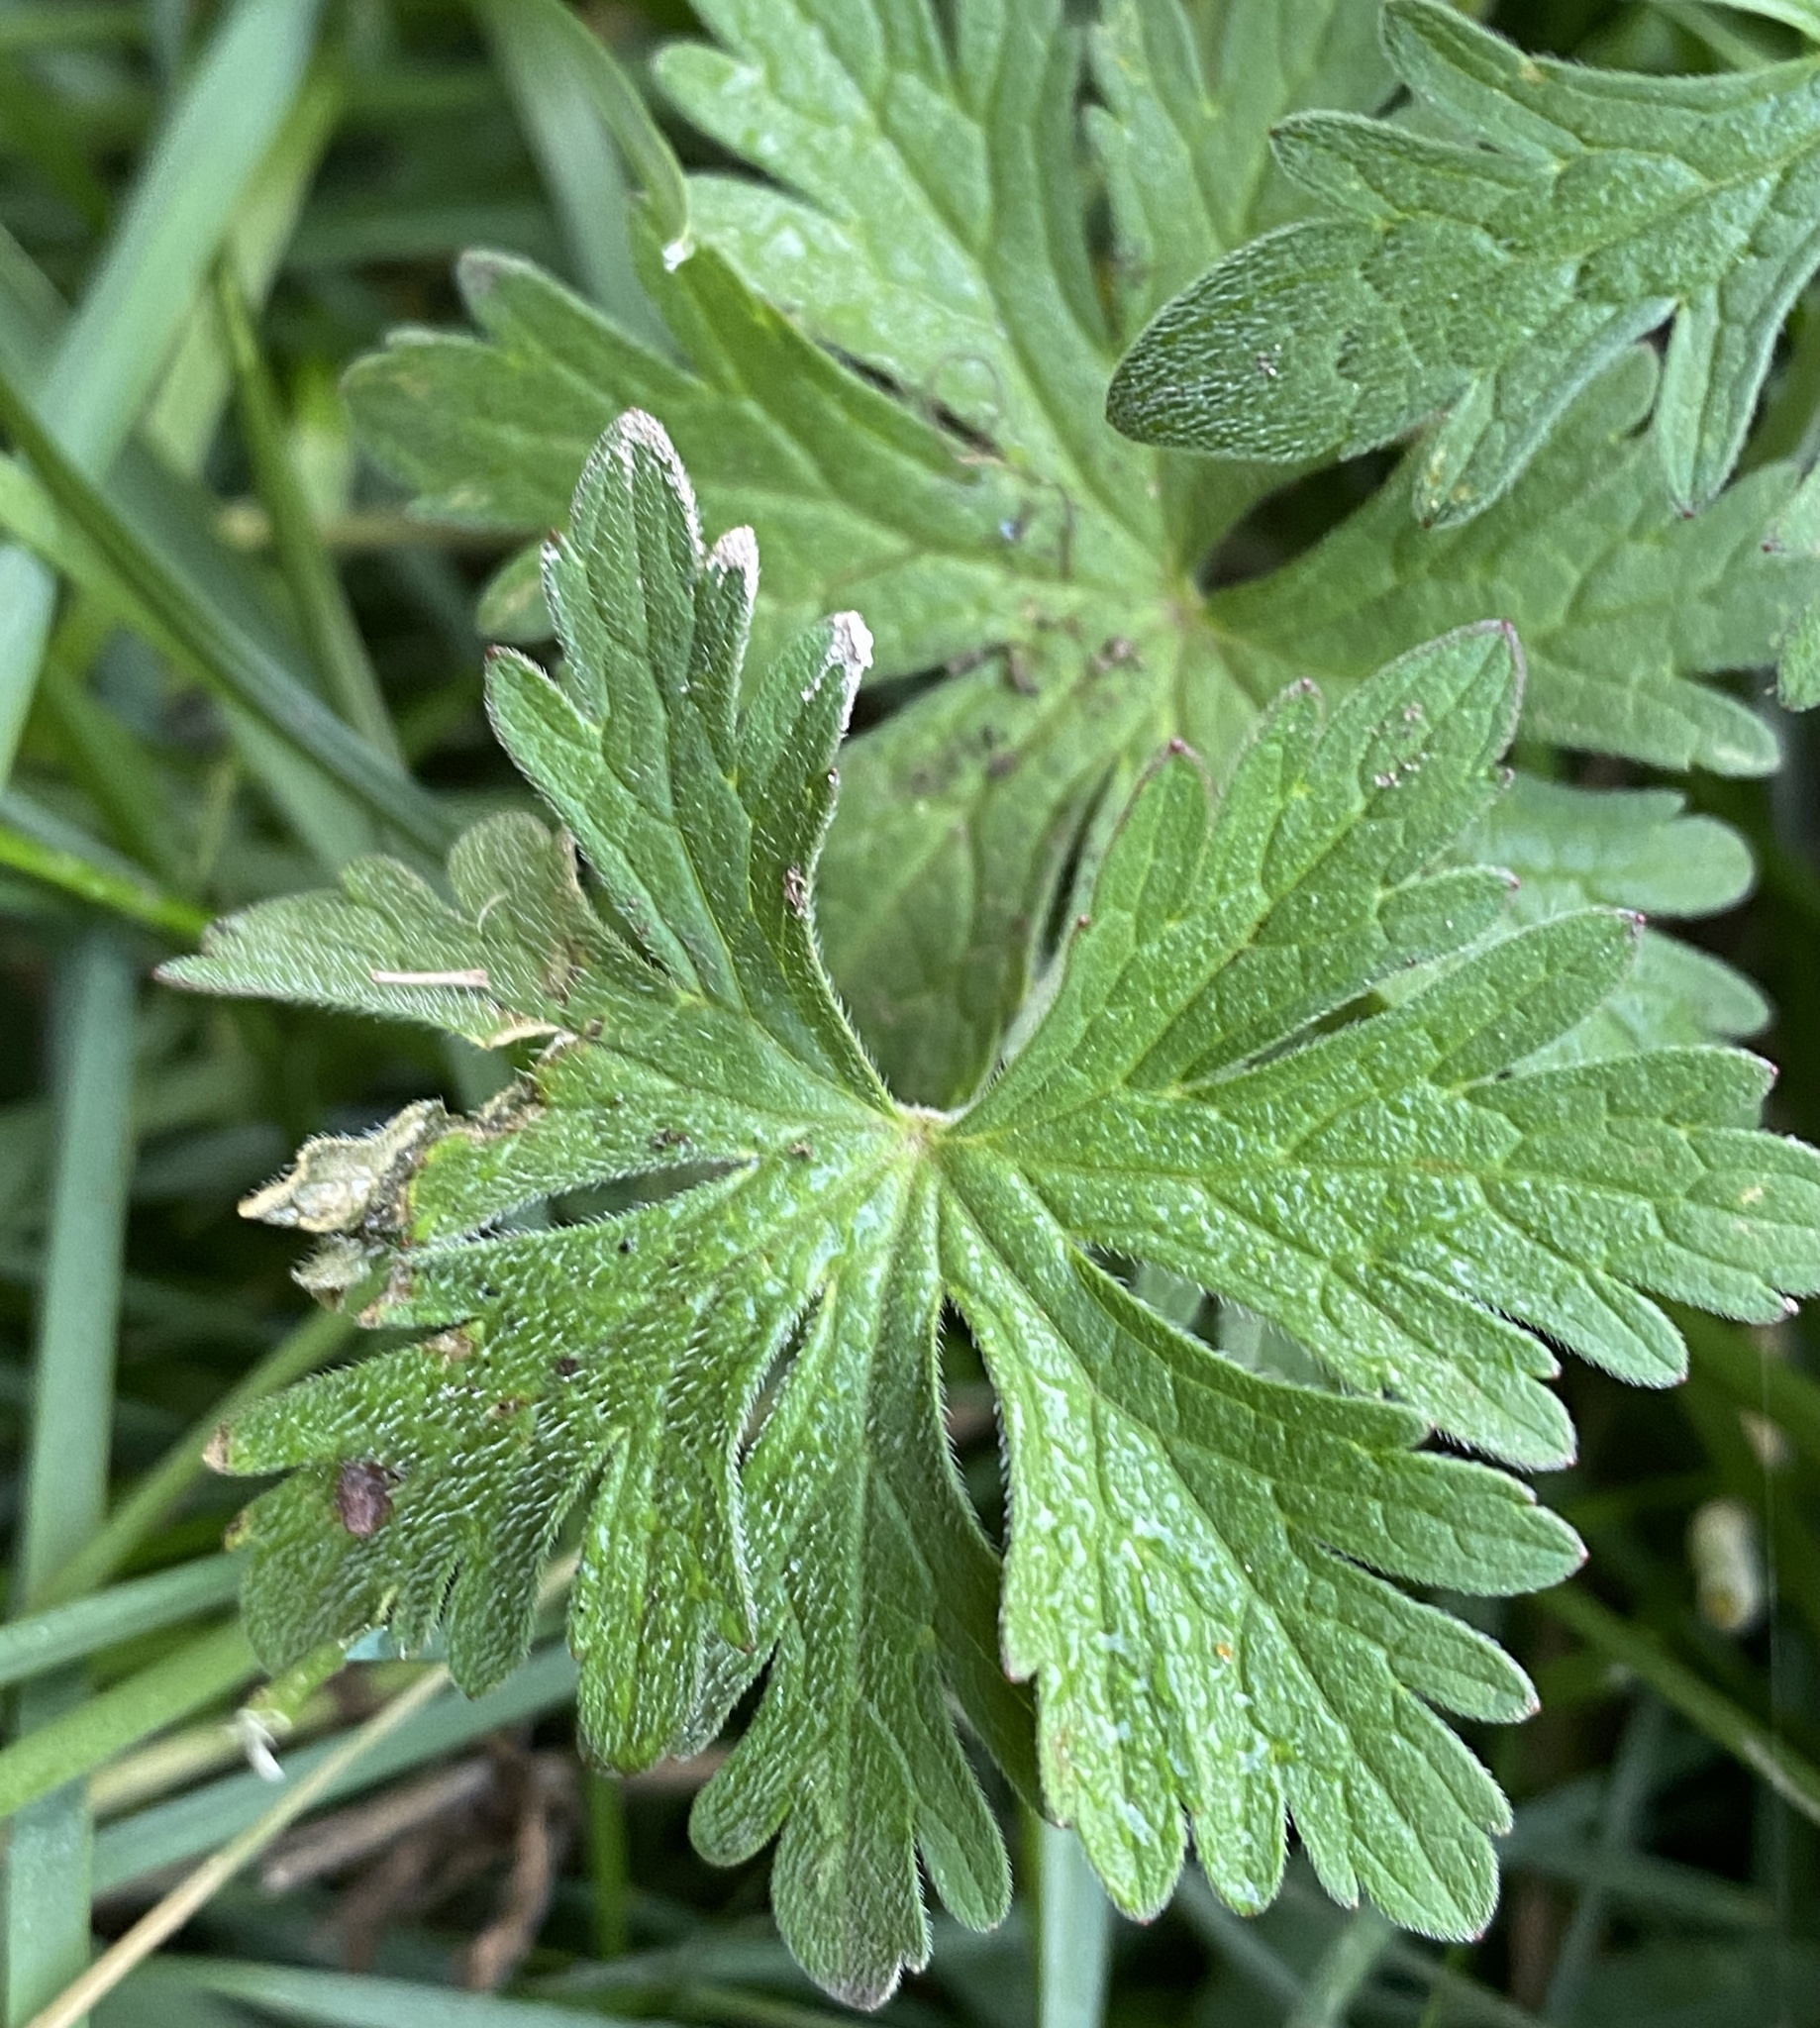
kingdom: Plantae
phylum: Tracheophyta
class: Magnoliopsida
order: Geraniales
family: Geraniaceae
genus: Geranium
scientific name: Geranium pratense
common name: Meadow crane's-bill
